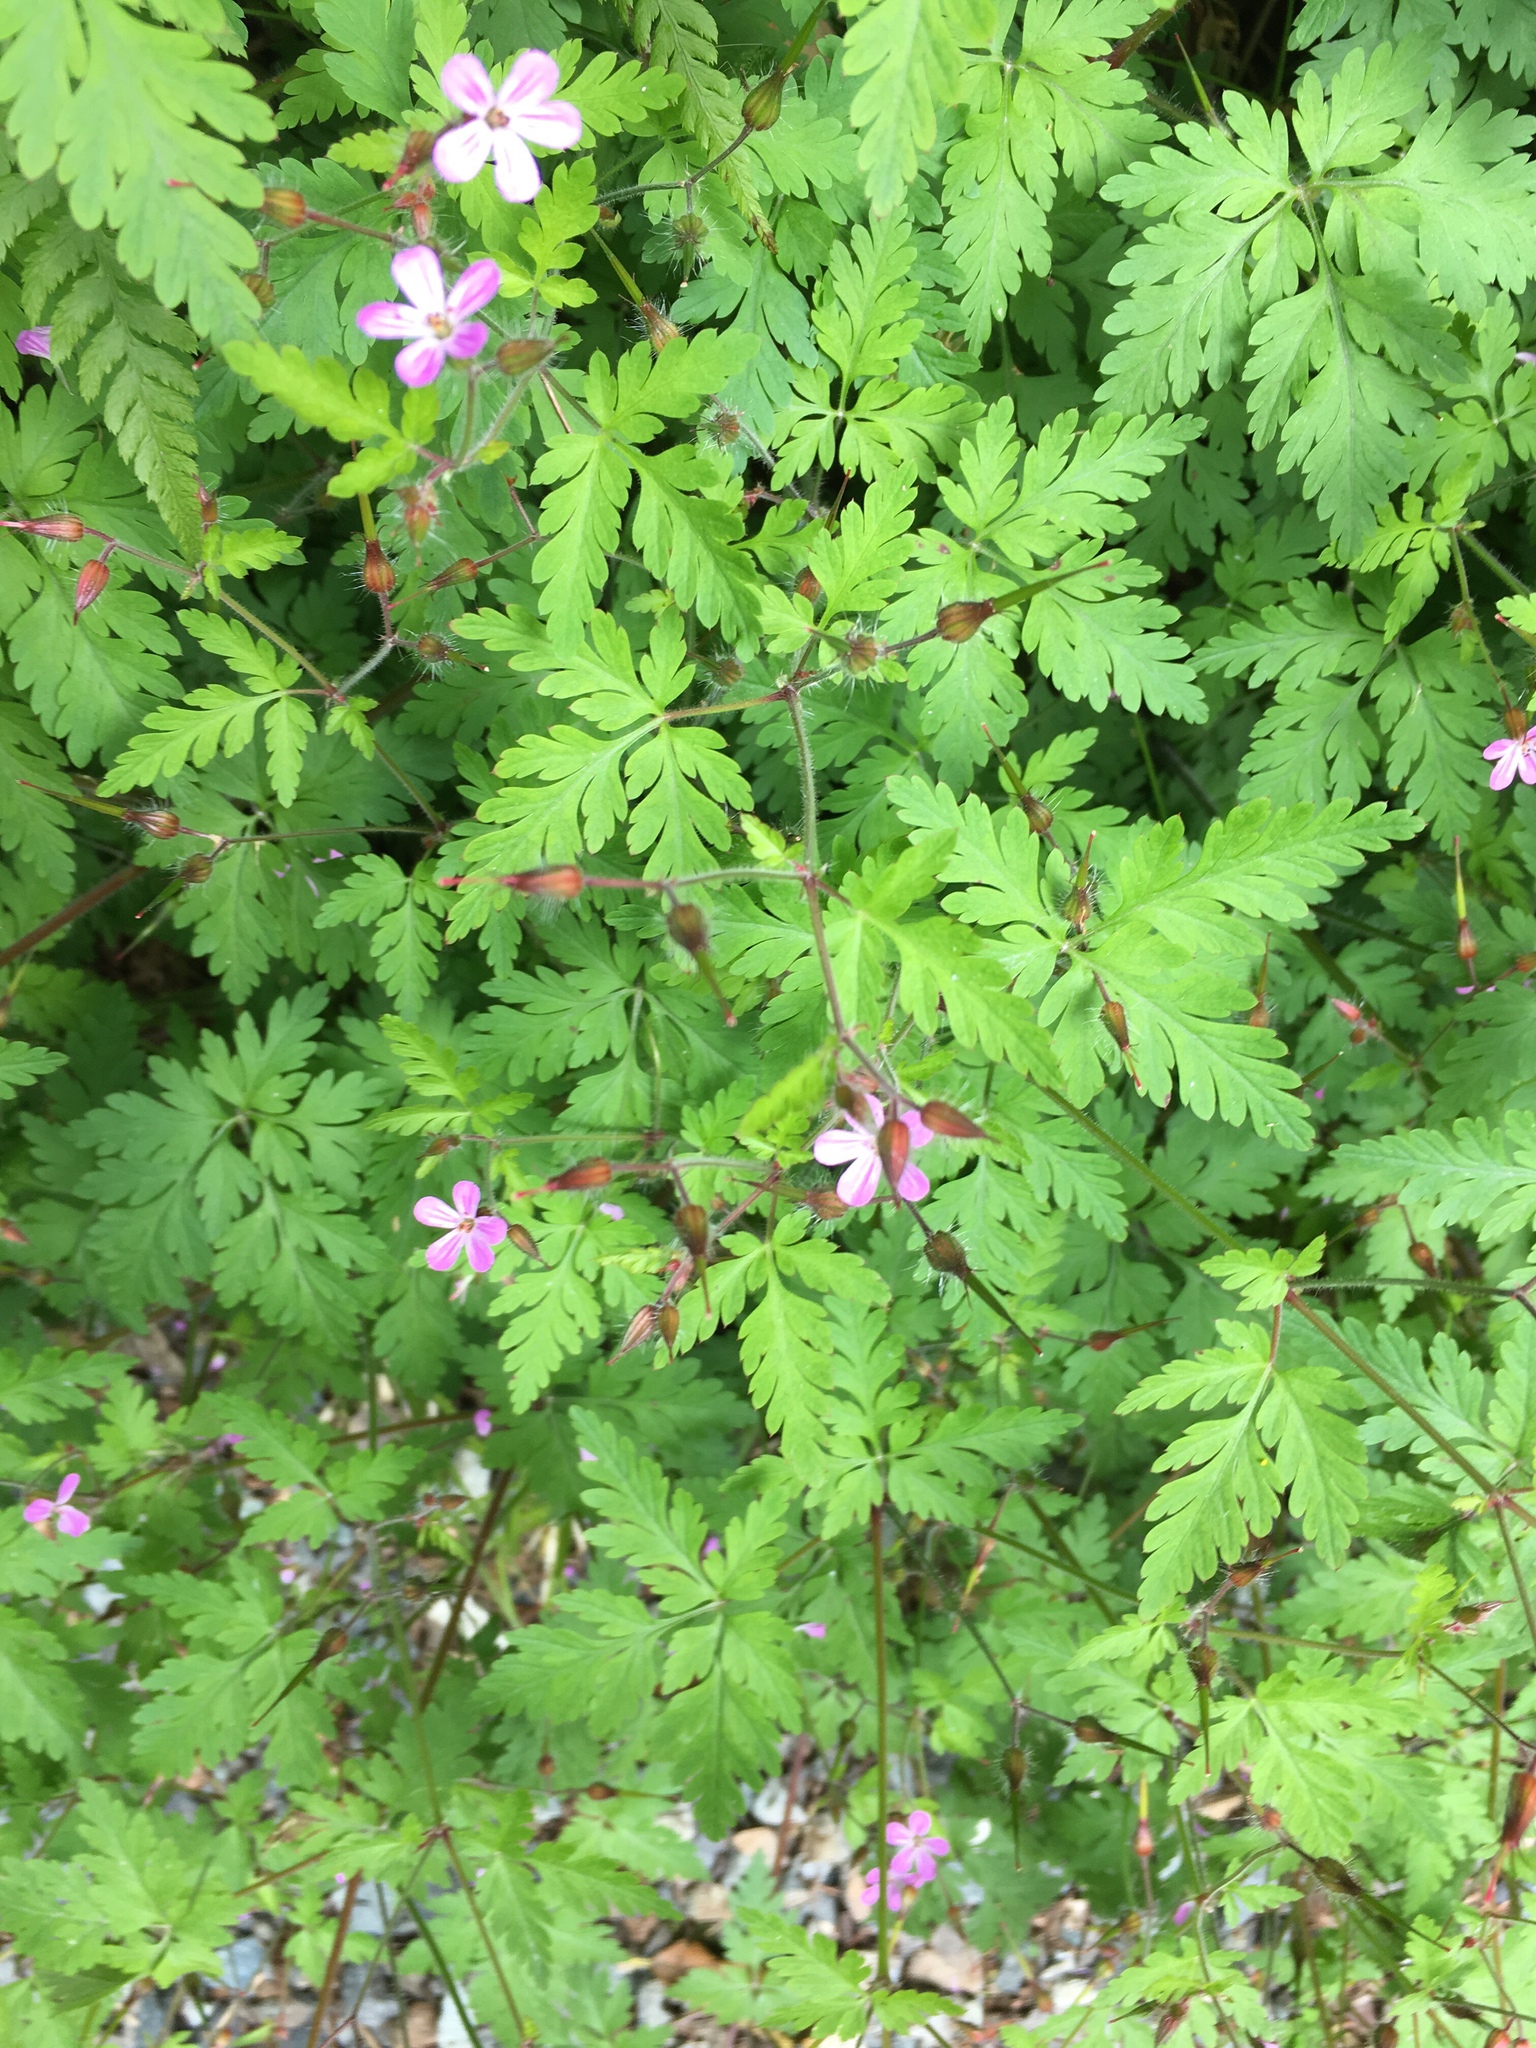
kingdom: Plantae
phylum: Tracheophyta
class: Magnoliopsida
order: Geraniales
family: Geraniaceae
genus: Geranium
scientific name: Geranium robertianum
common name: Herb-robert
